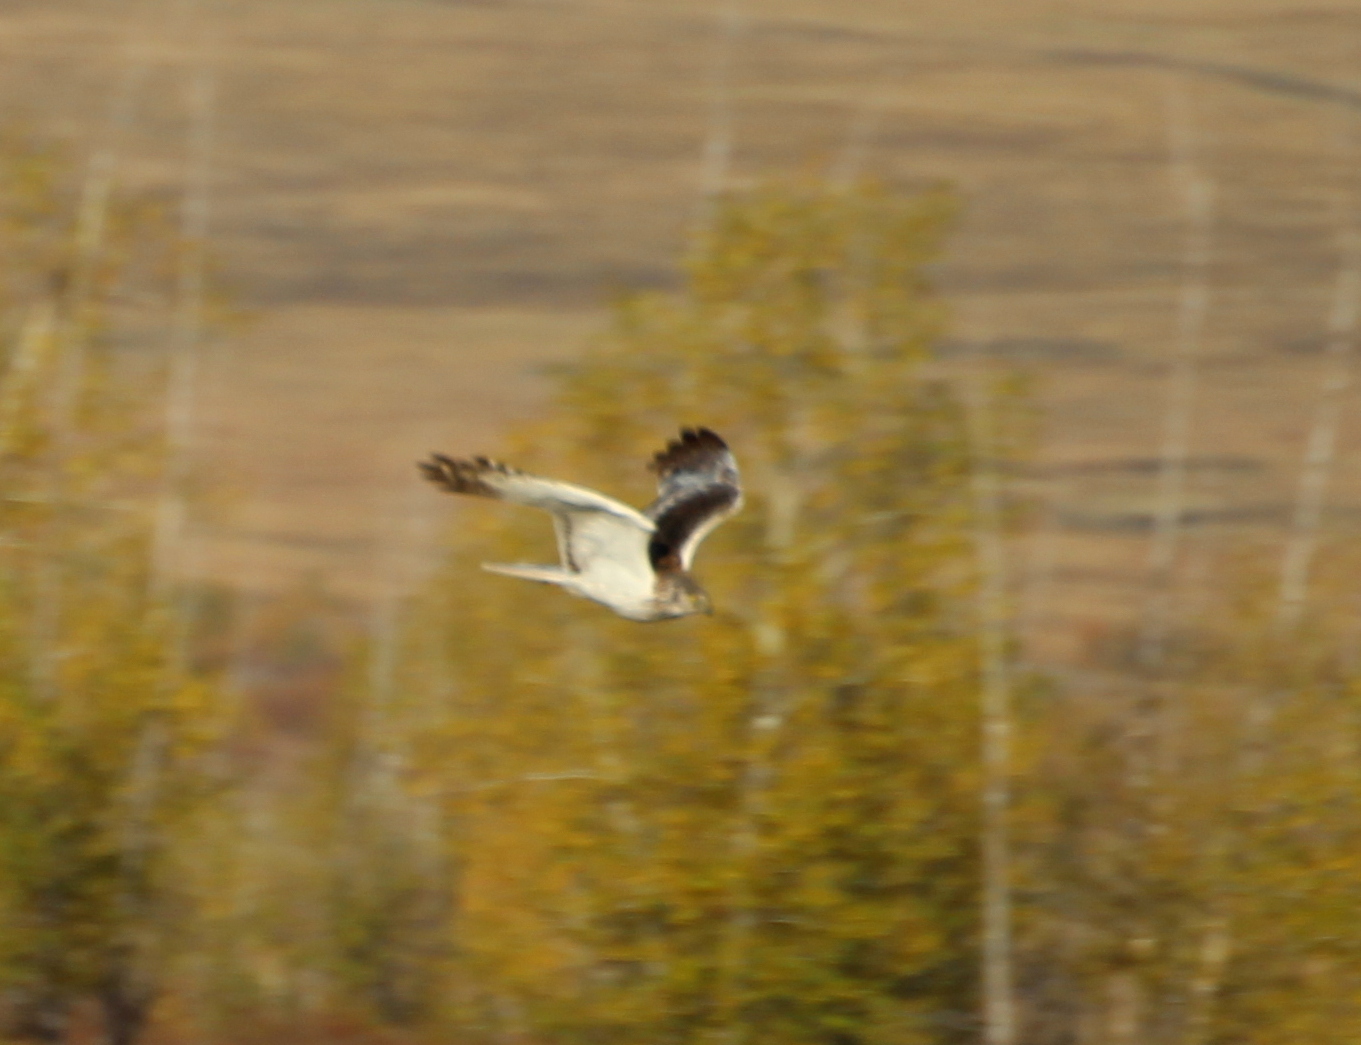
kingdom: Animalia
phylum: Chordata
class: Aves
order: Accipitriformes
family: Accipitridae
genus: Circus
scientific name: Circus melanoleucos
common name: Pied harrier
